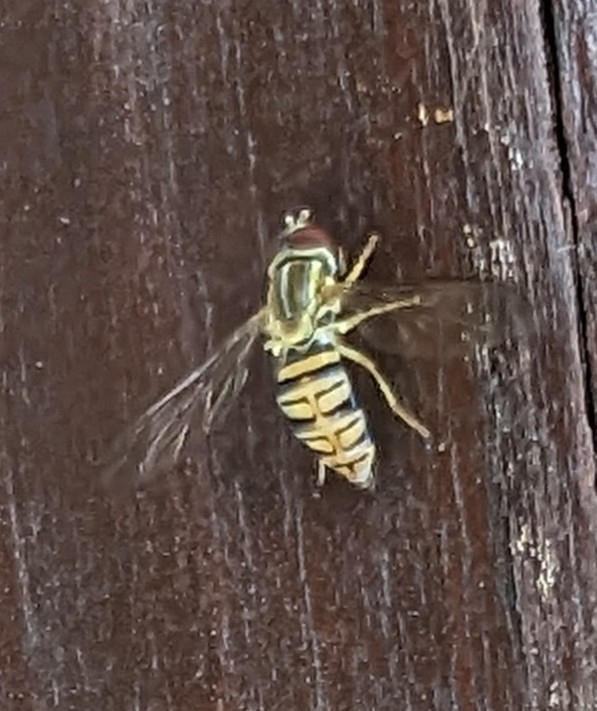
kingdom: Animalia
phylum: Arthropoda
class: Insecta
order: Diptera
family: Syrphidae
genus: Toxomerus
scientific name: Toxomerus politus
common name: Maize calligrapher
